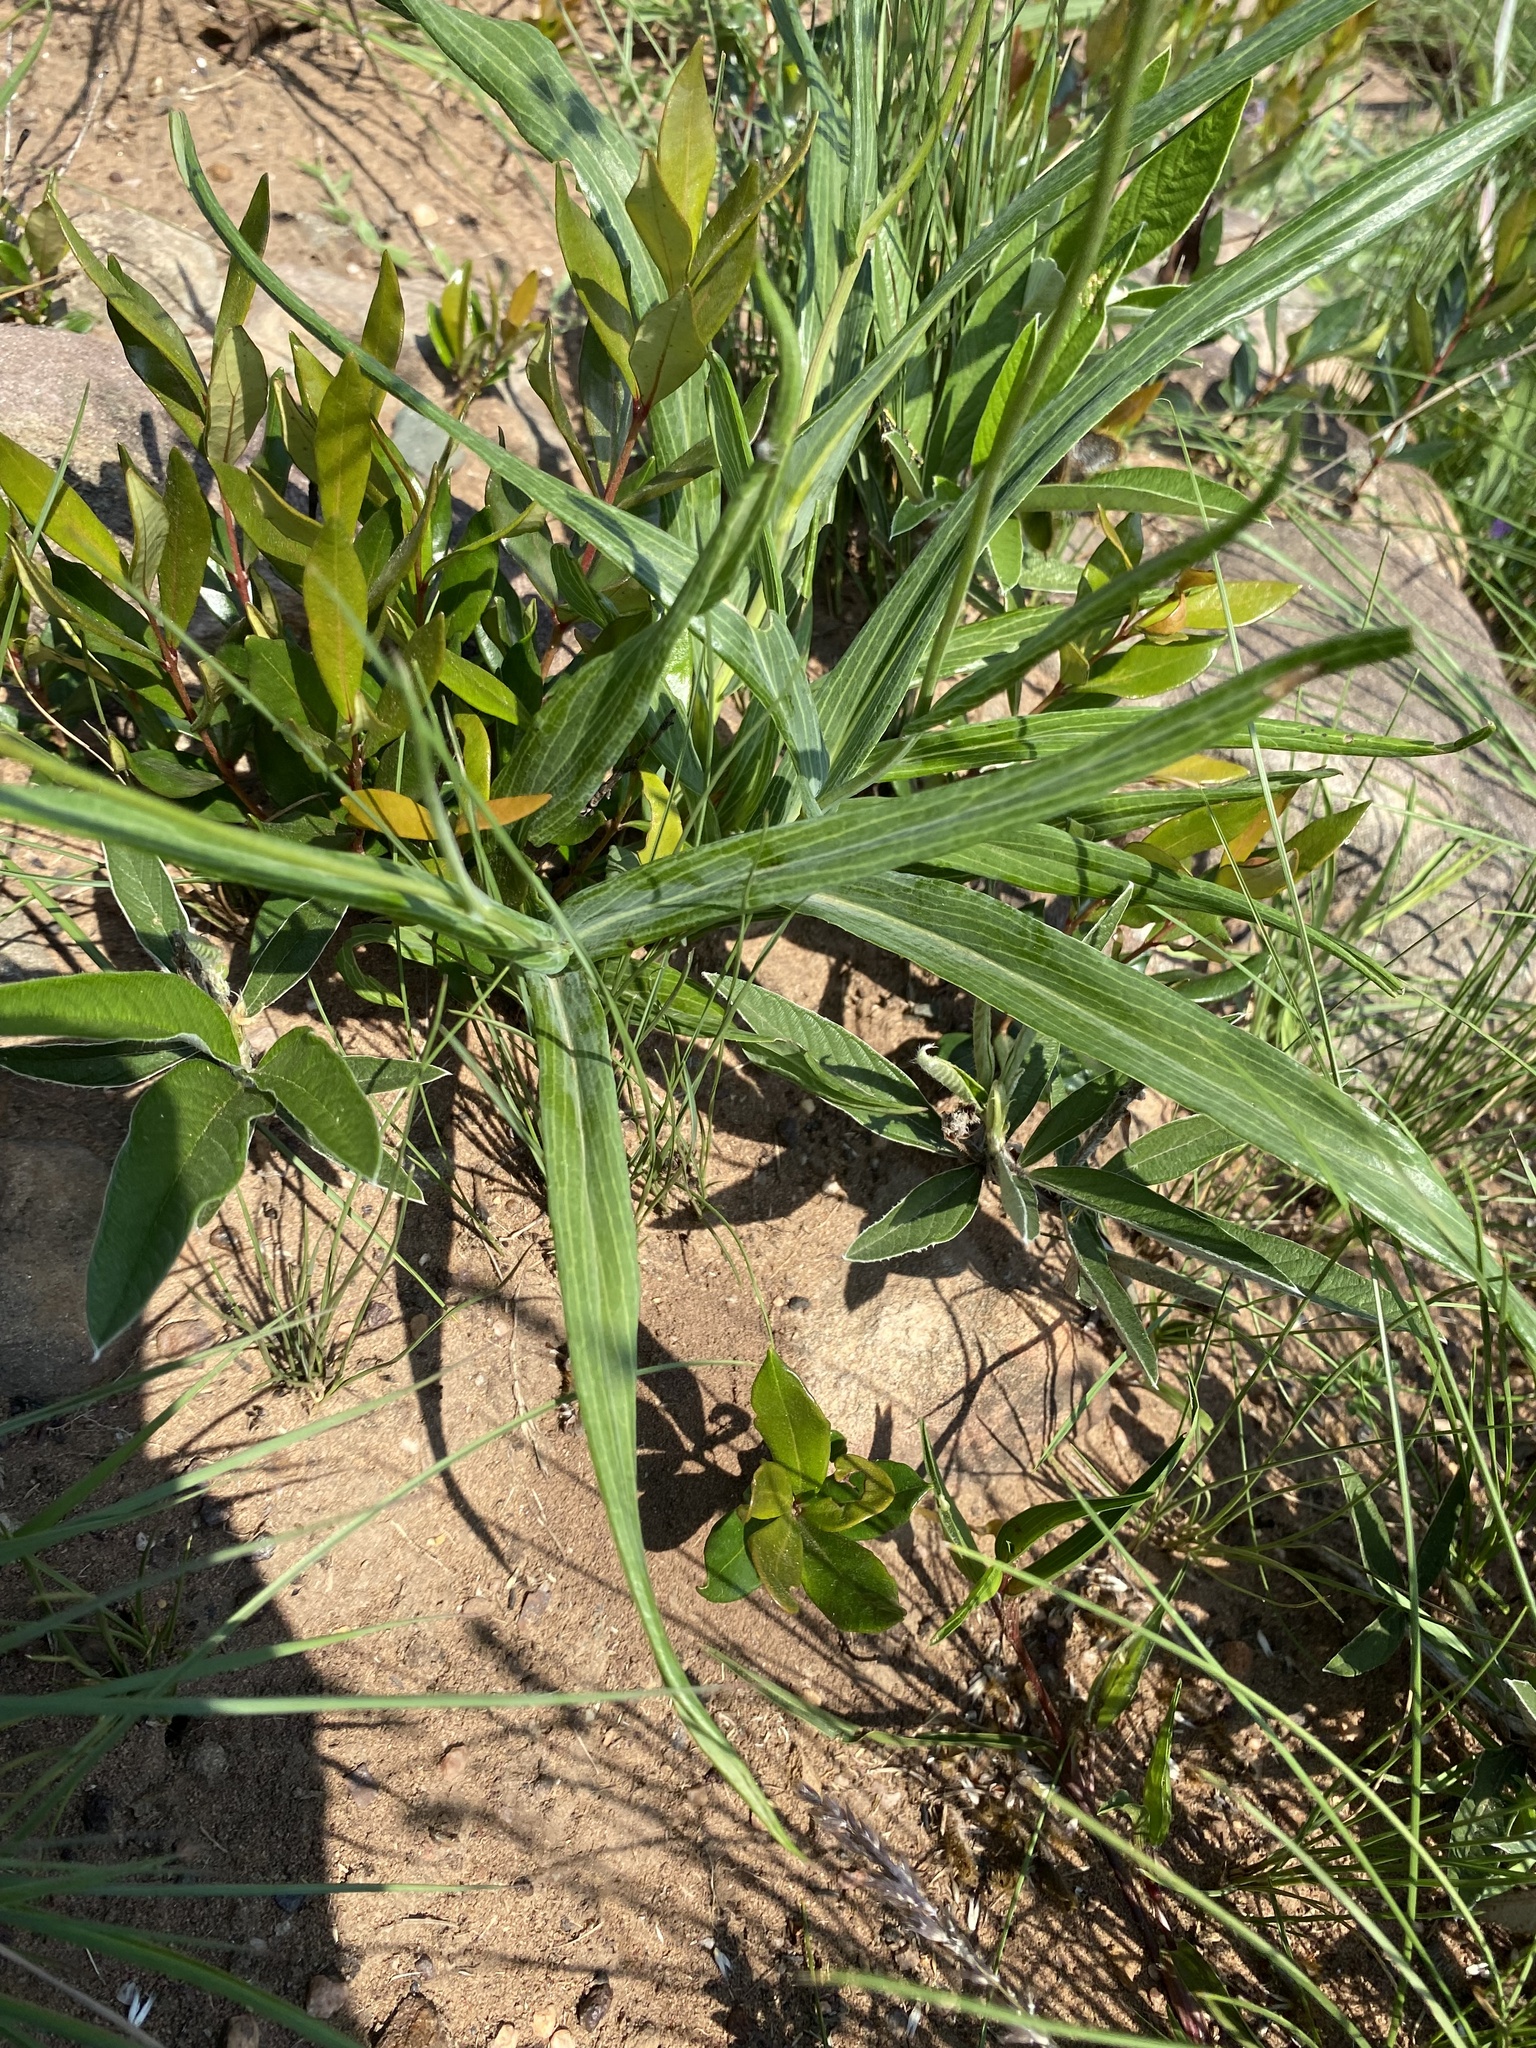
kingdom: Plantae
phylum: Tracheophyta
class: Magnoliopsida
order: Asterales
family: Asteraceae
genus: Senecio
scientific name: Senecio bupleuroides
